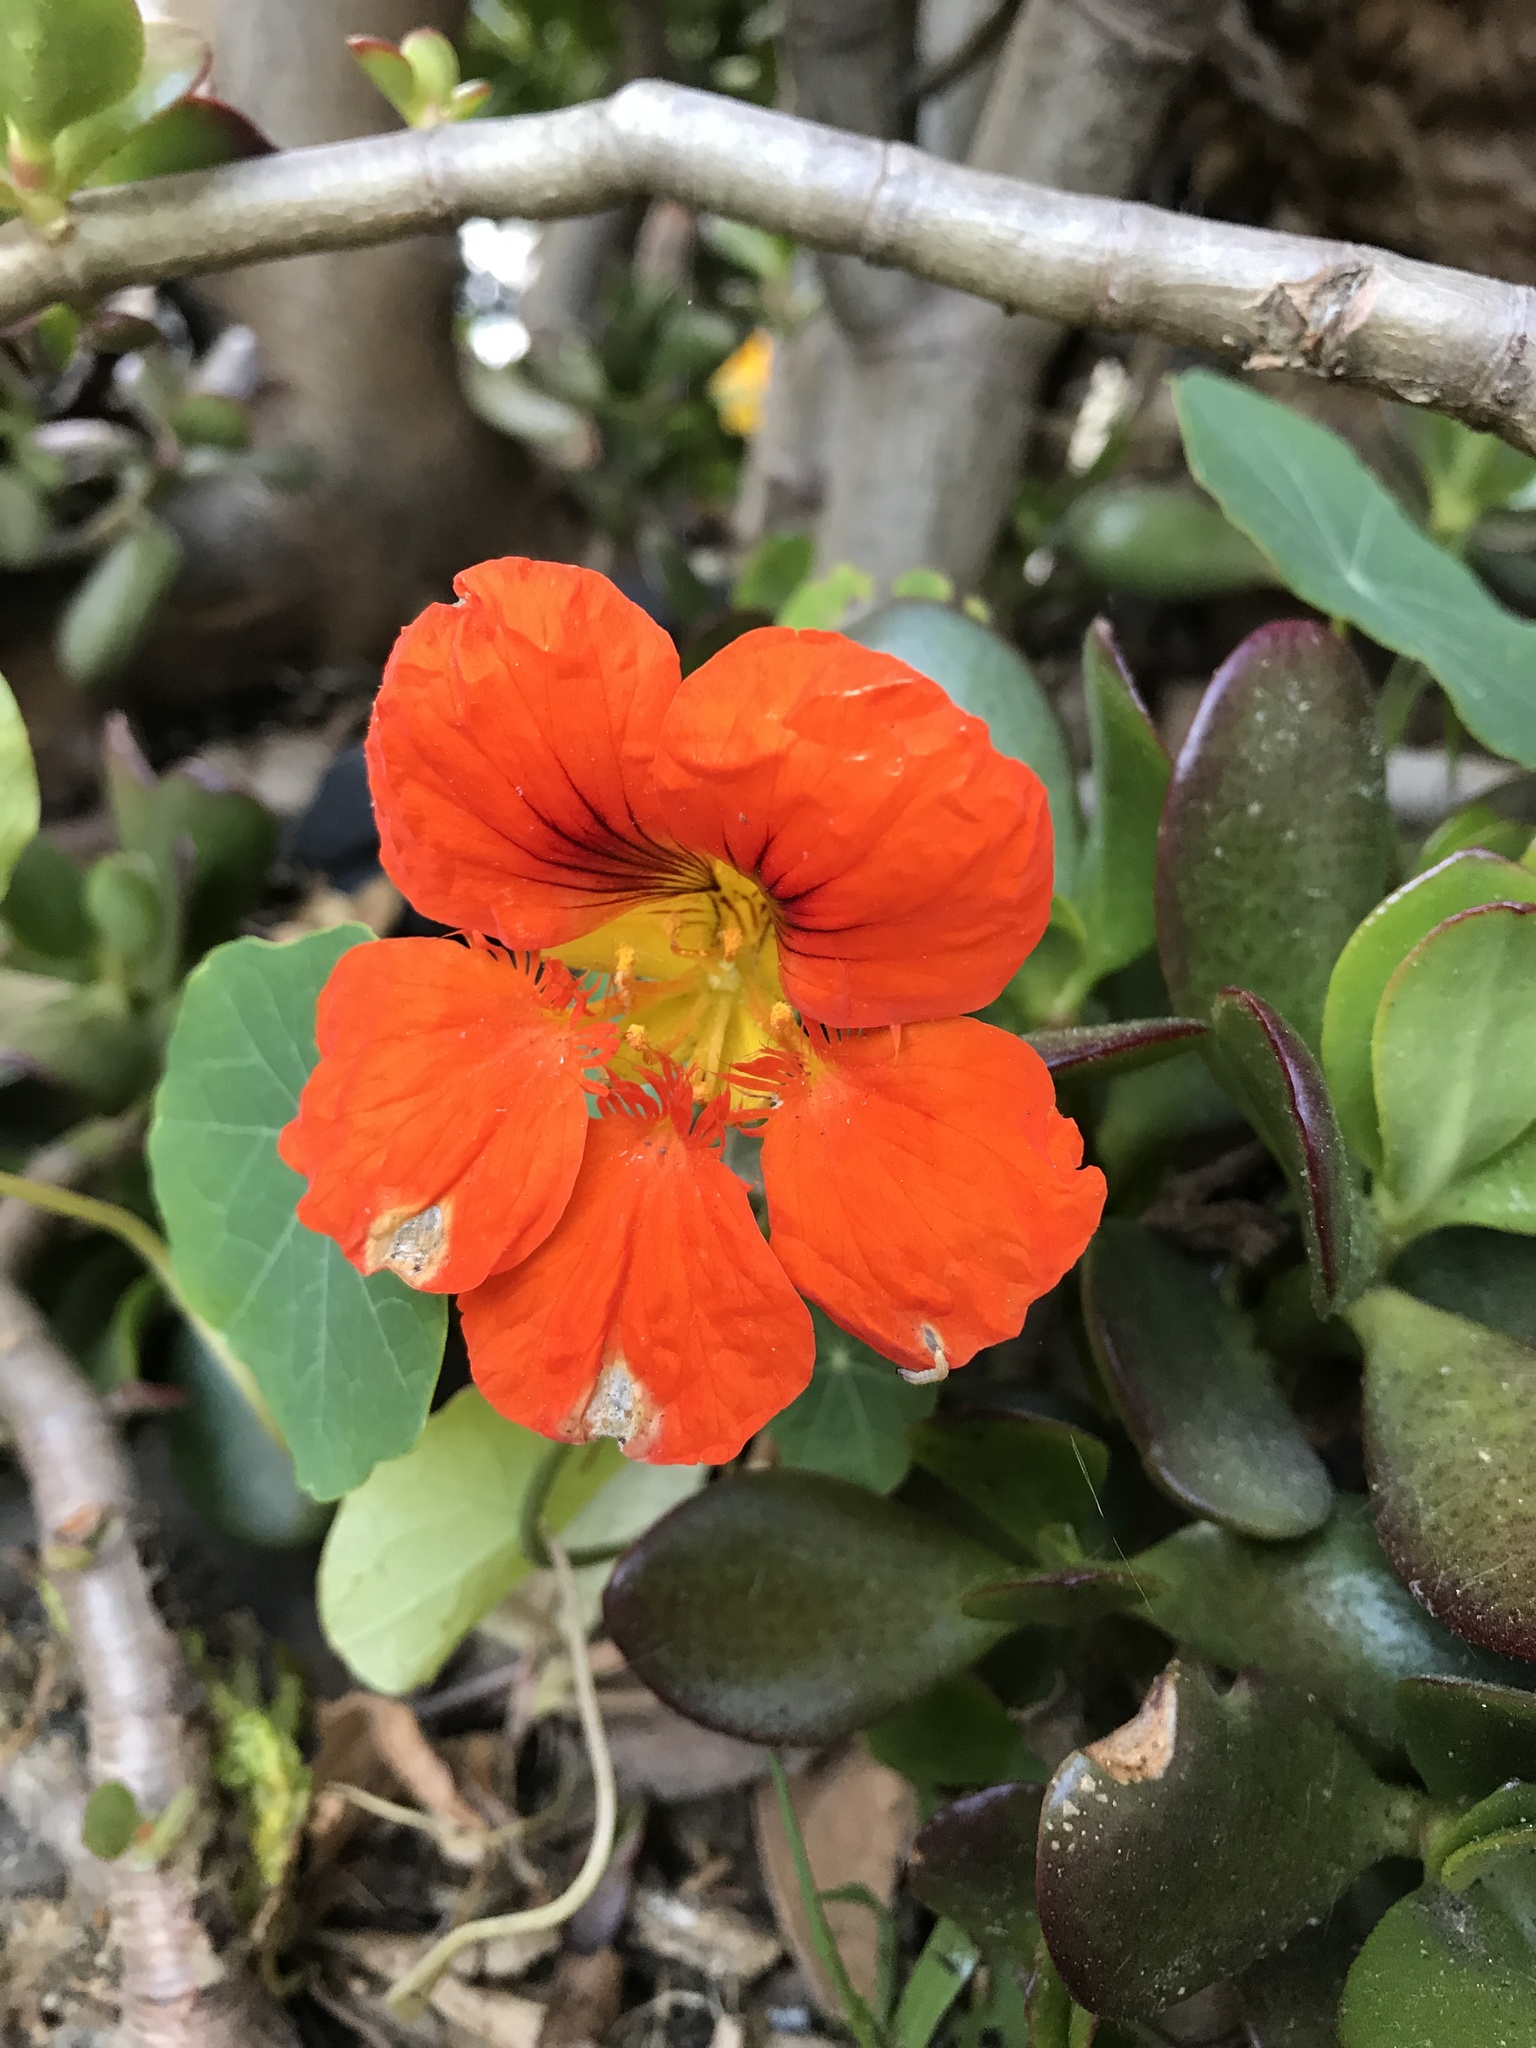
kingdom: Plantae
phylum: Tracheophyta
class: Magnoliopsida
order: Brassicales
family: Tropaeolaceae
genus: Tropaeolum
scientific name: Tropaeolum majus
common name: Nasturtium
